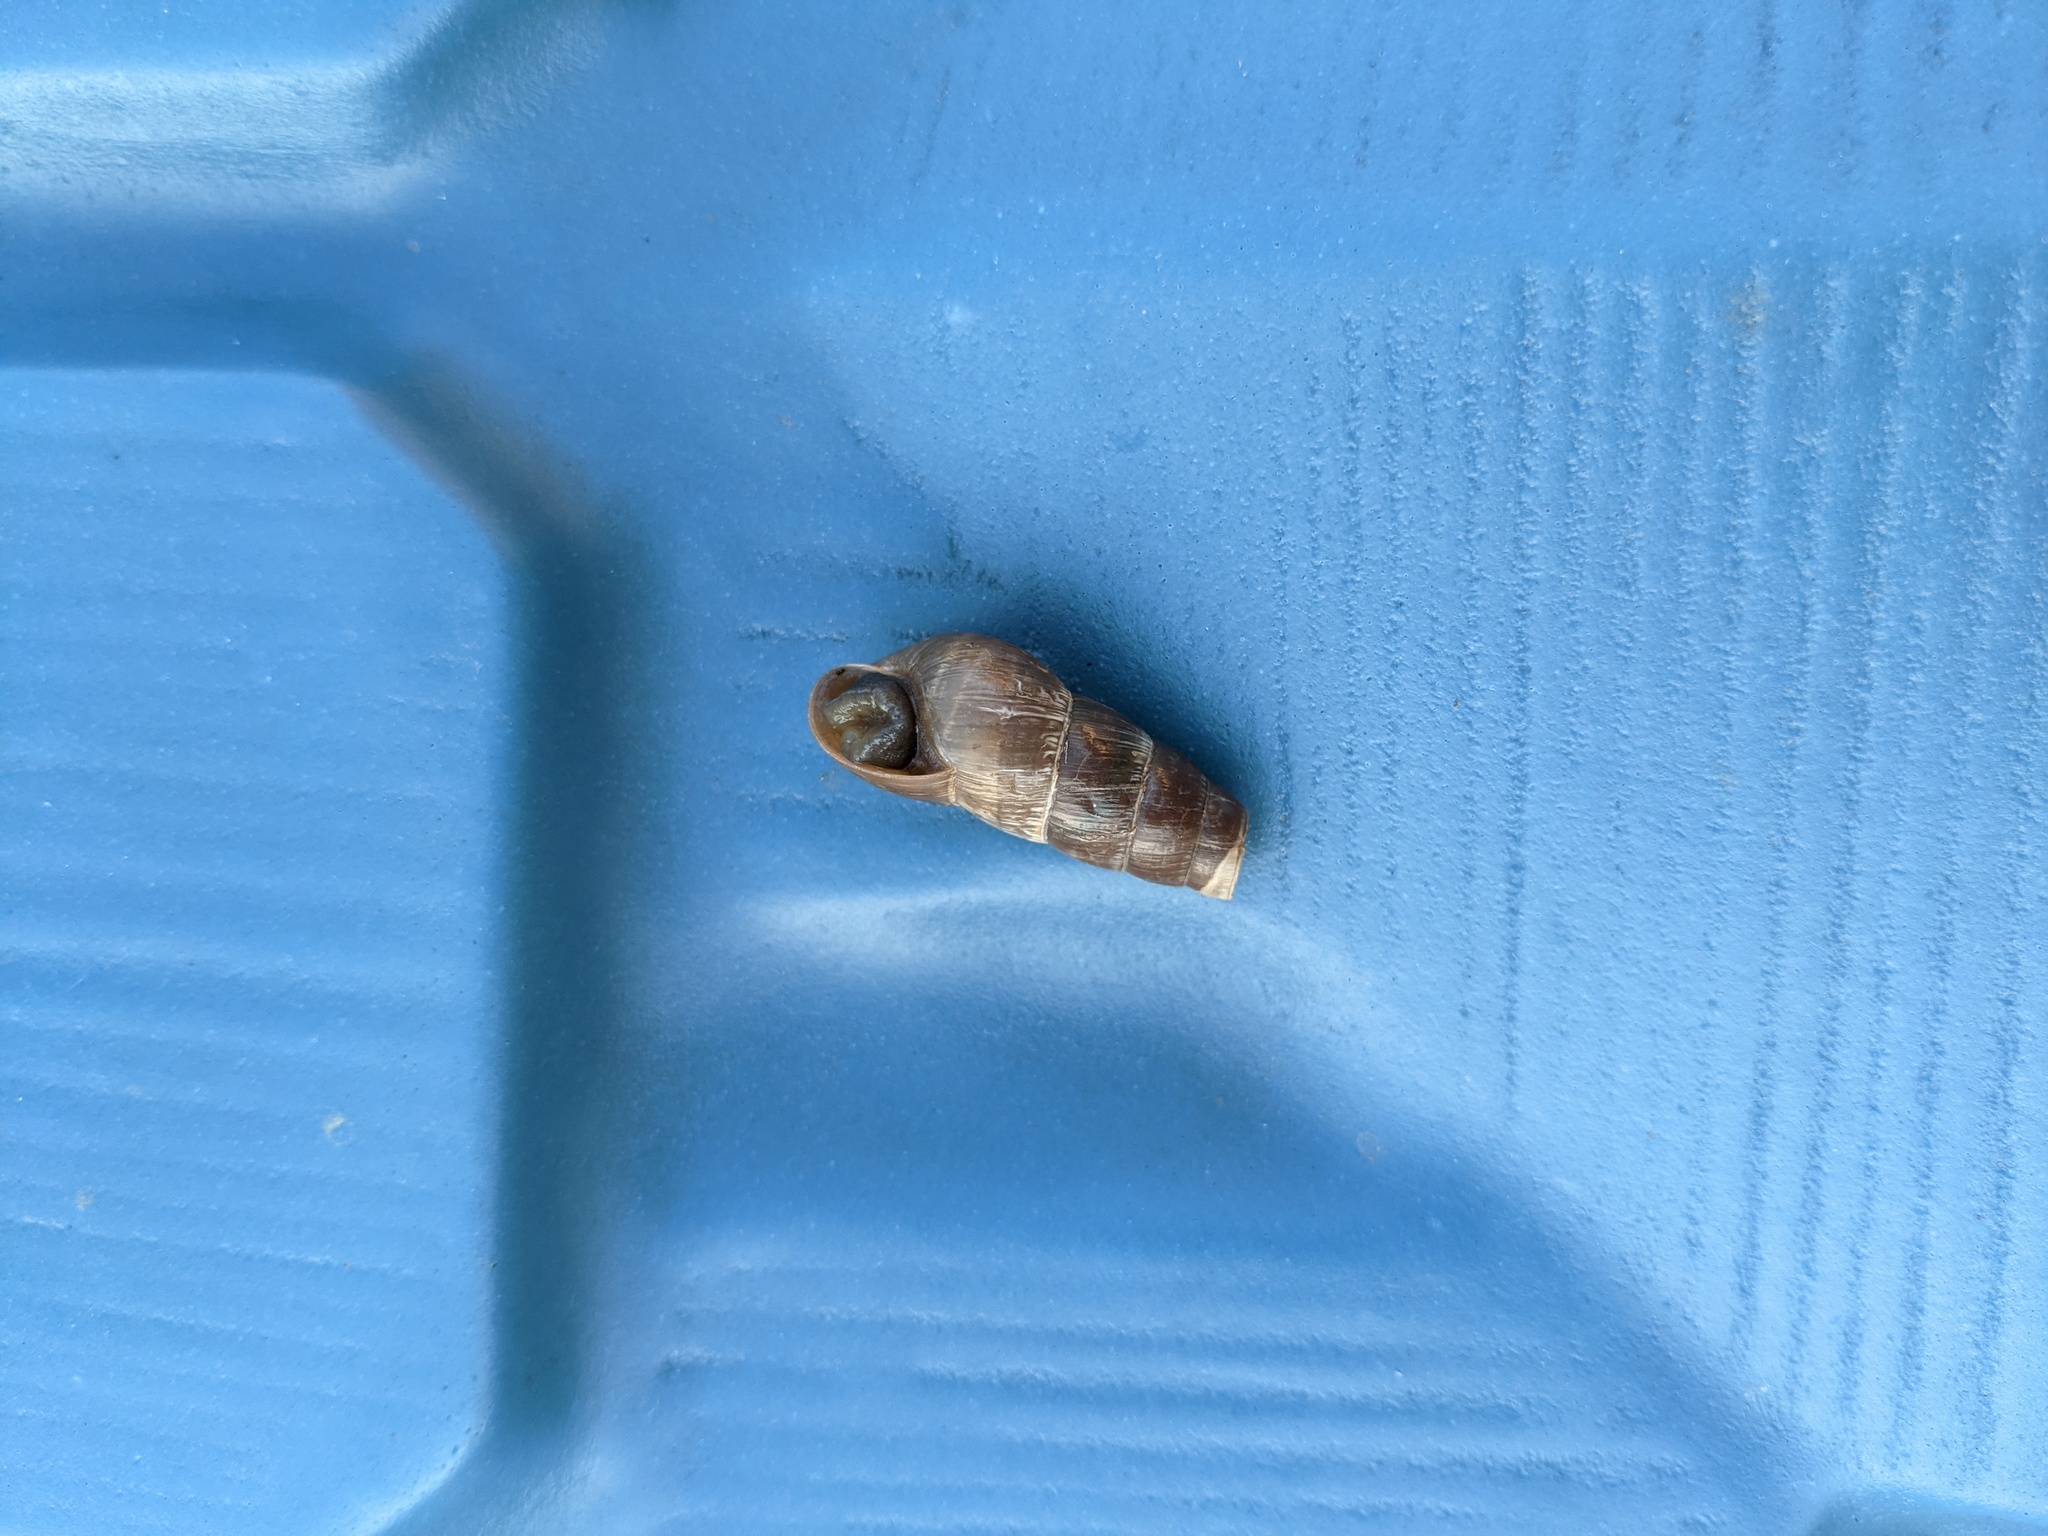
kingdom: Animalia
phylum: Mollusca
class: Gastropoda
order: Stylommatophora
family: Achatinidae
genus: Rumina
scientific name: Rumina decollata
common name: Decollate snail
